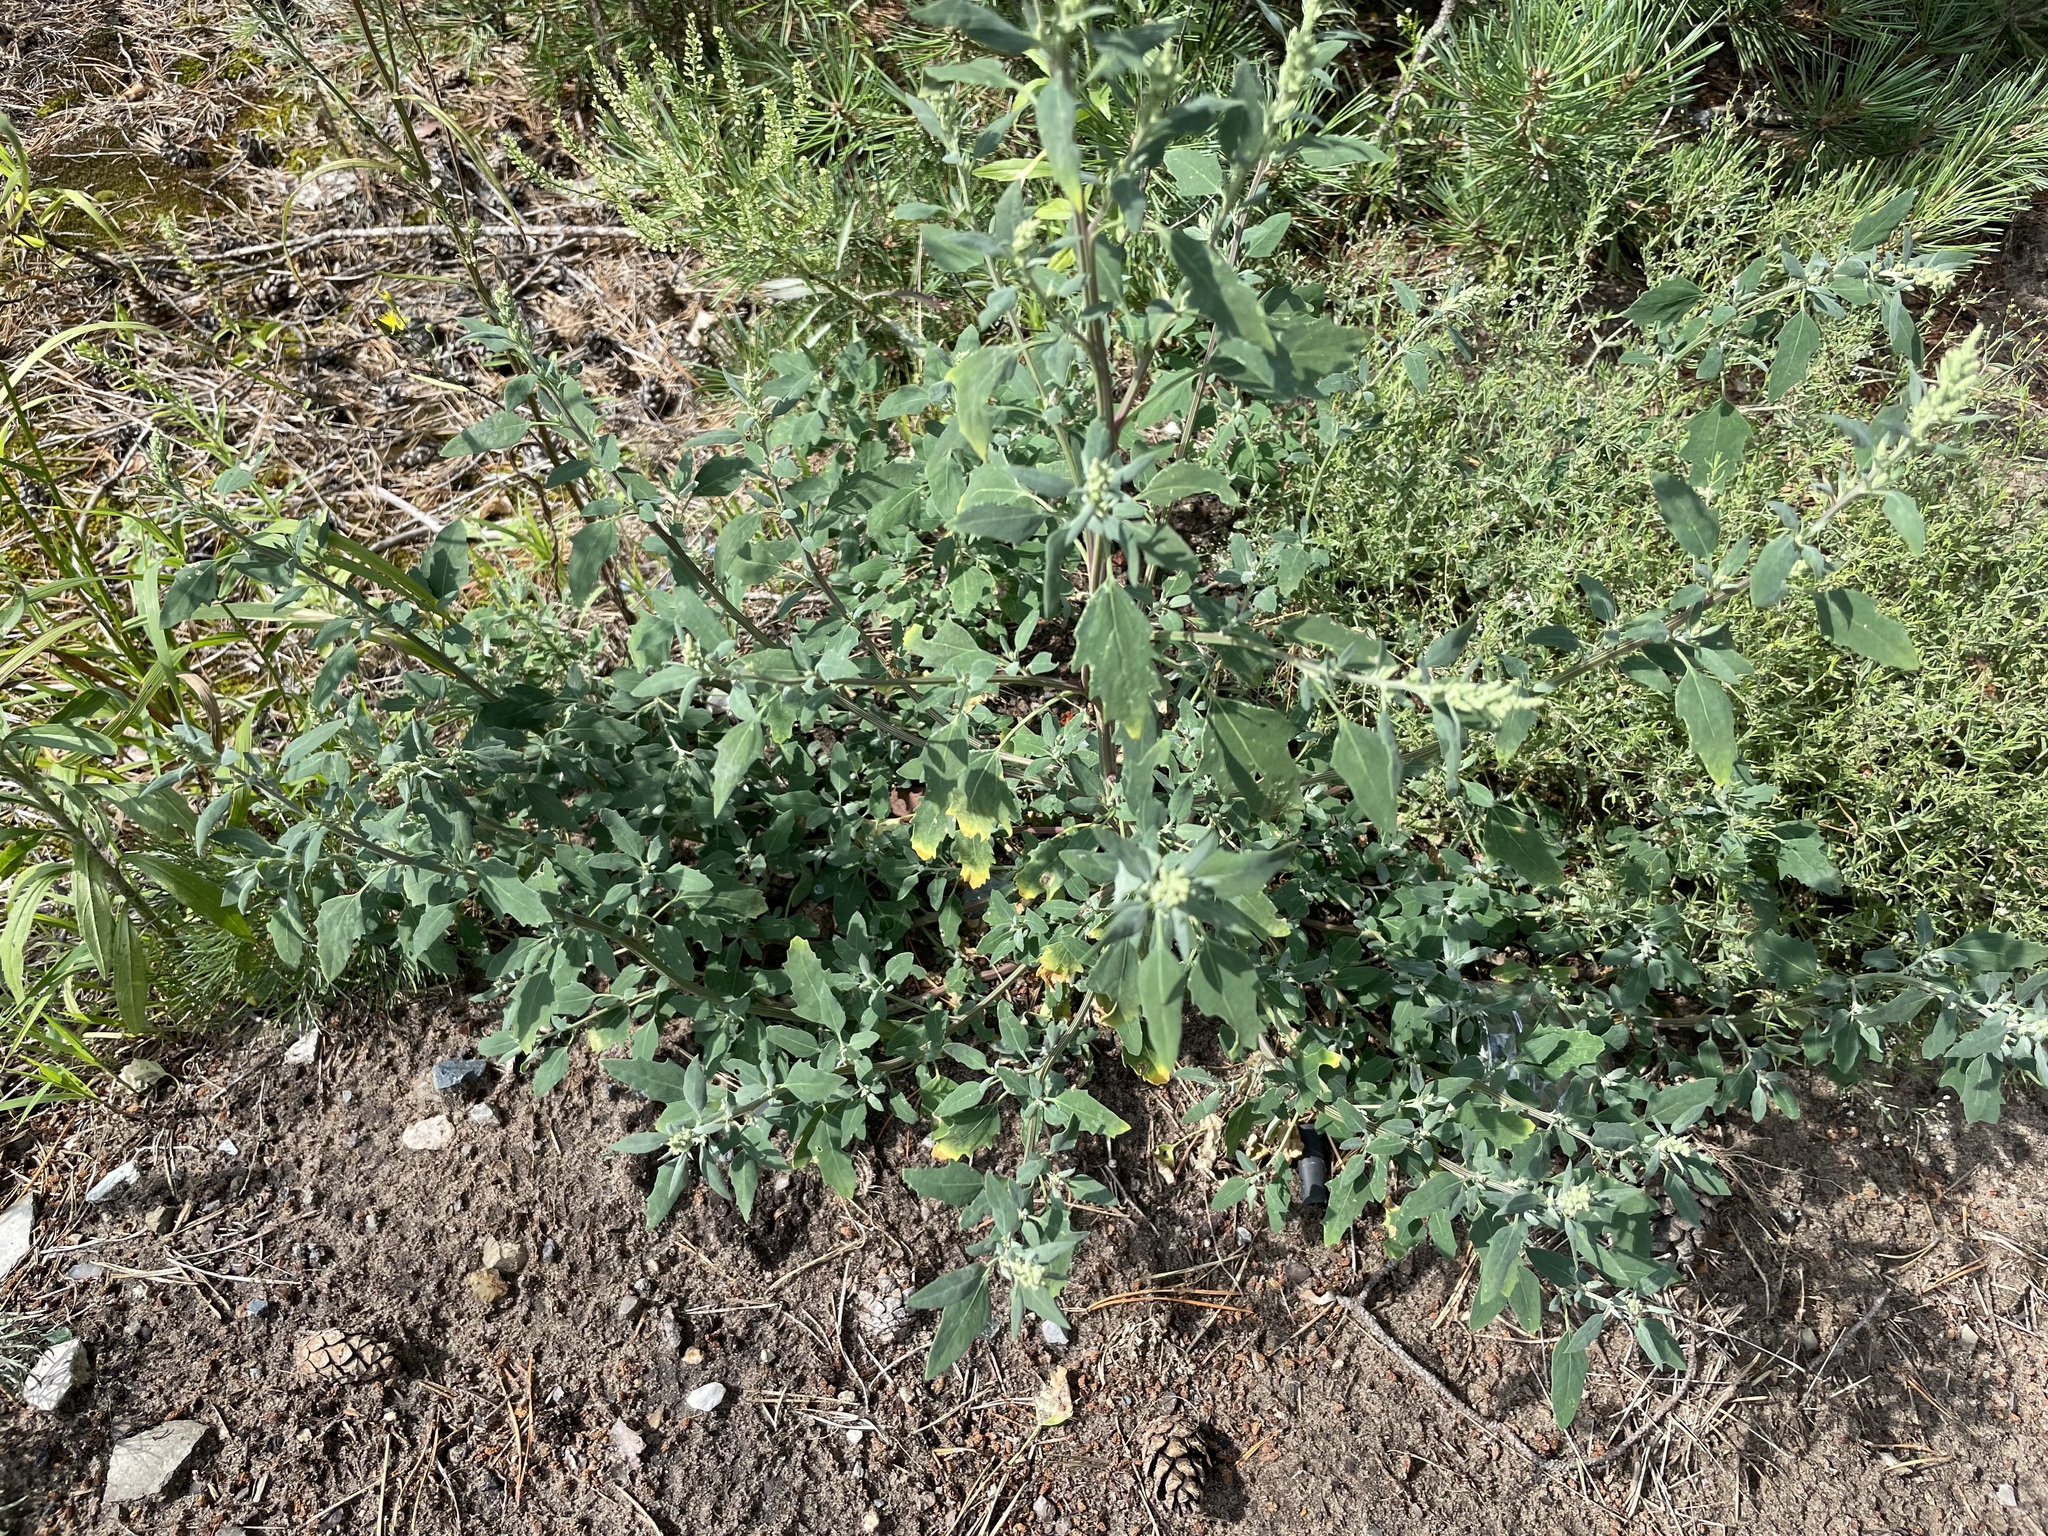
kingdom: Plantae
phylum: Tracheophyta
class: Magnoliopsida
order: Caryophyllales
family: Amaranthaceae
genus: Chenopodium
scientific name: Chenopodium album
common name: Fat-hen
